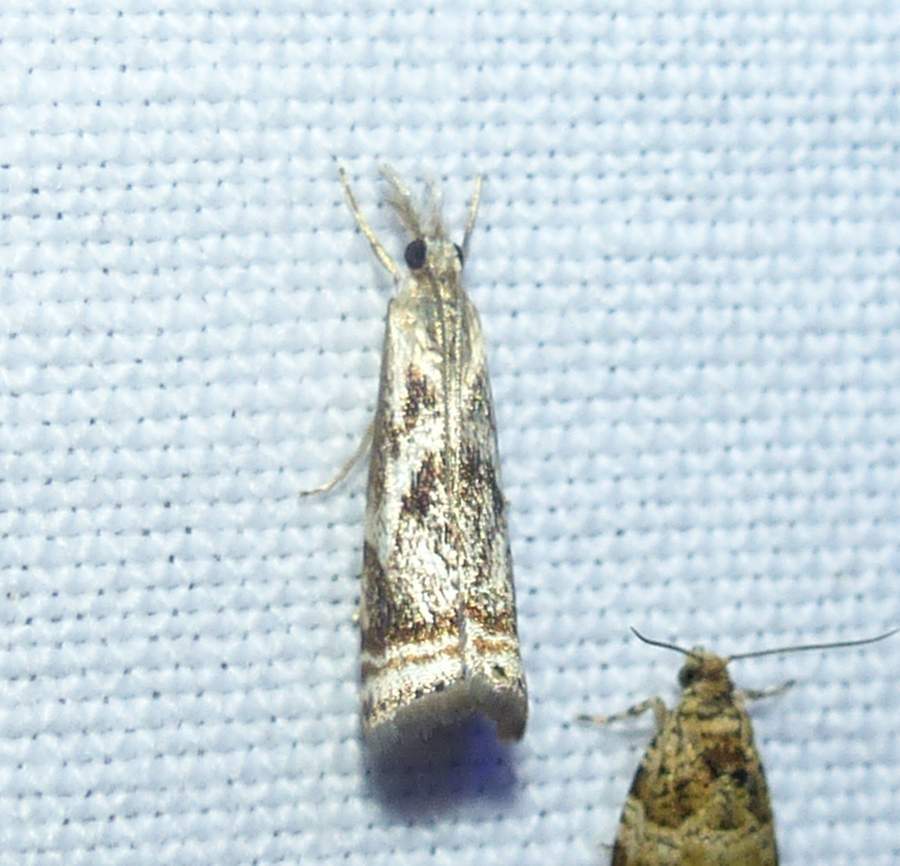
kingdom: Animalia
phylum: Arthropoda
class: Insecta
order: Lepidoptera
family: Crambidae
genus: Microcrambus
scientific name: Microcrambus elegans
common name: Elegant grass-veneer
